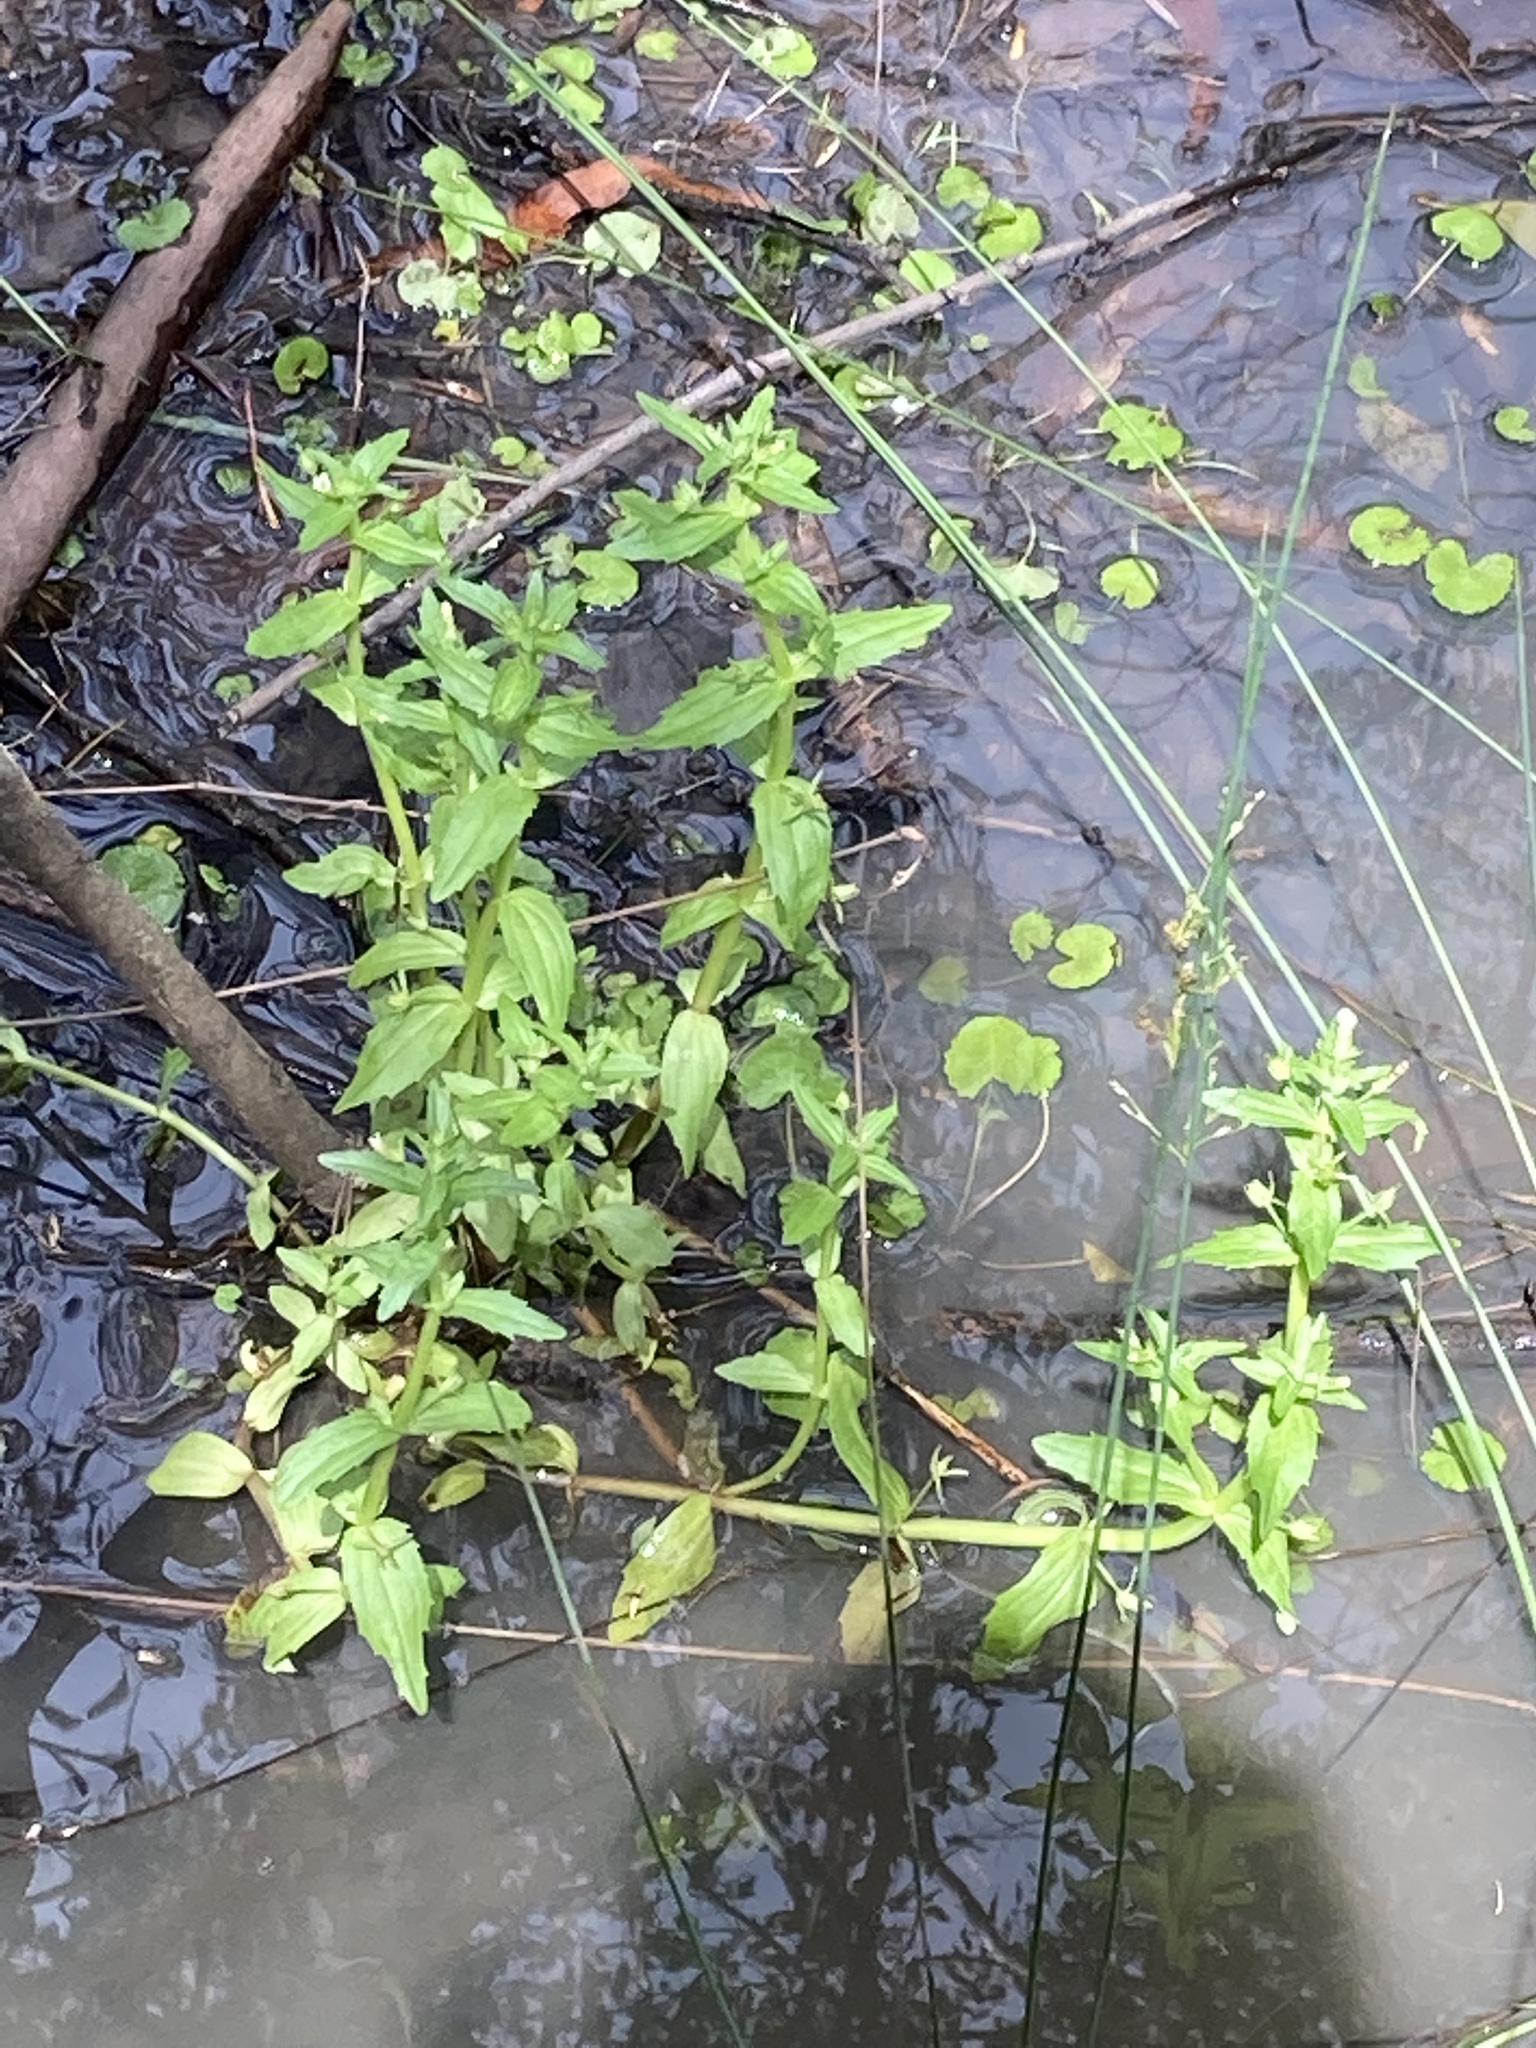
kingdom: Plantae
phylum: Tracheophyta
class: Magnoliopsida
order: Lamiales
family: Plantaginaceae
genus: Gratiola
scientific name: Gratiola pedunculata
